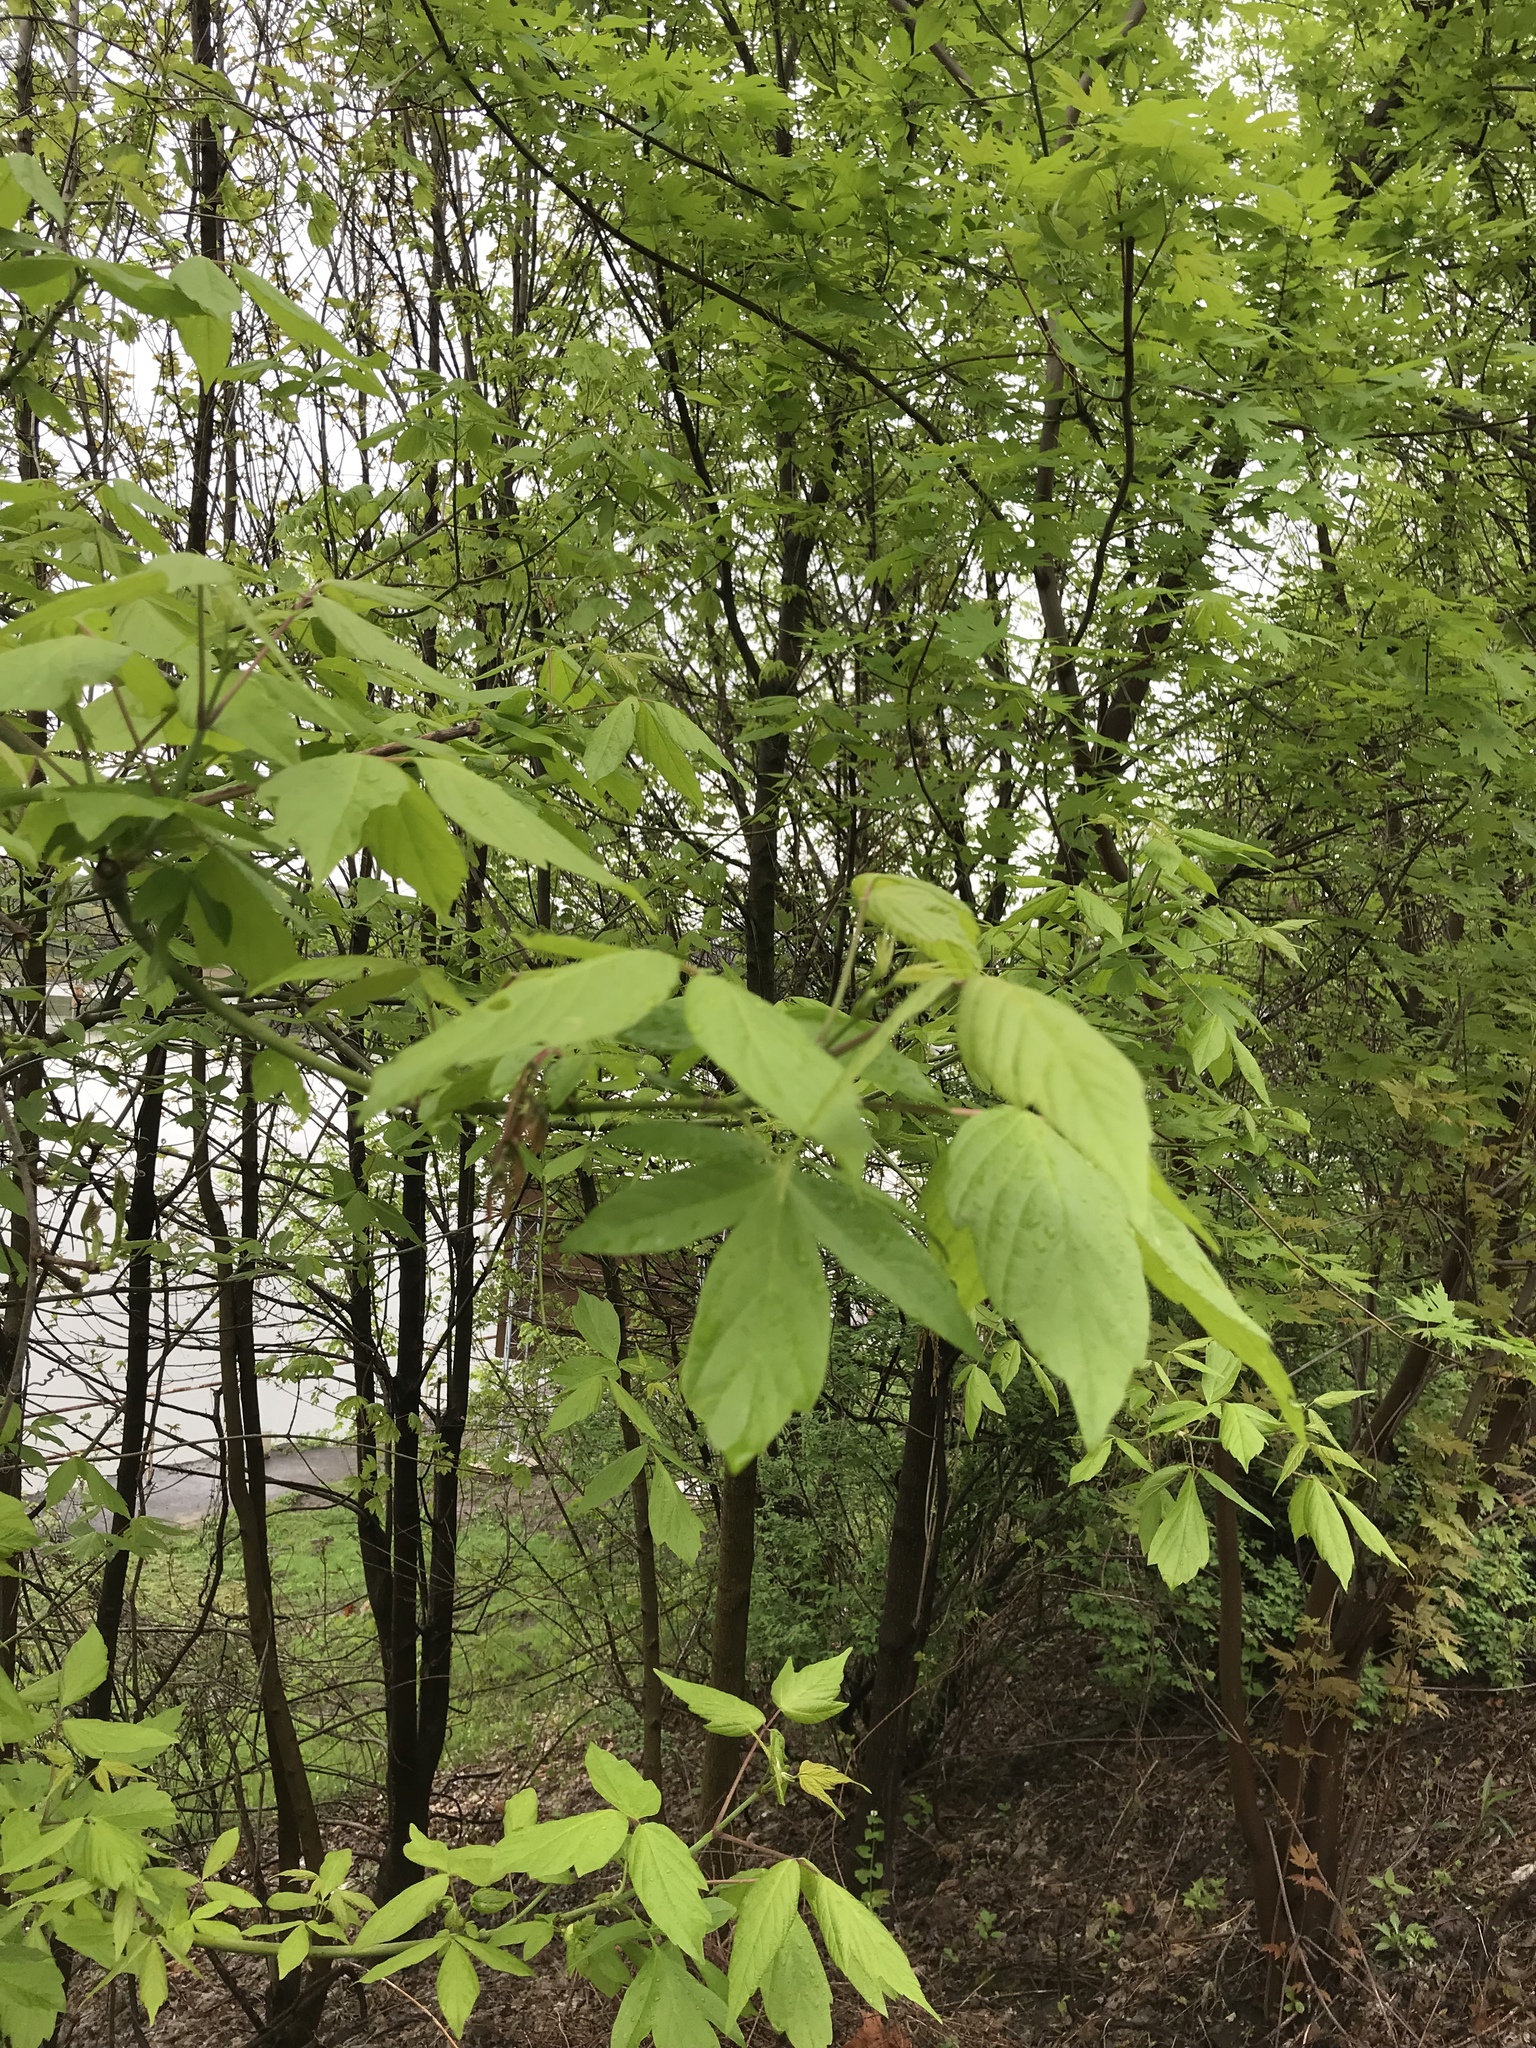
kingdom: Plantae
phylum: Tracheophyta
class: Magnoliopsida
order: Sapindales
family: Sapindaceae
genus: Acer
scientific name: Acer negundo
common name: Ashleaf maple
